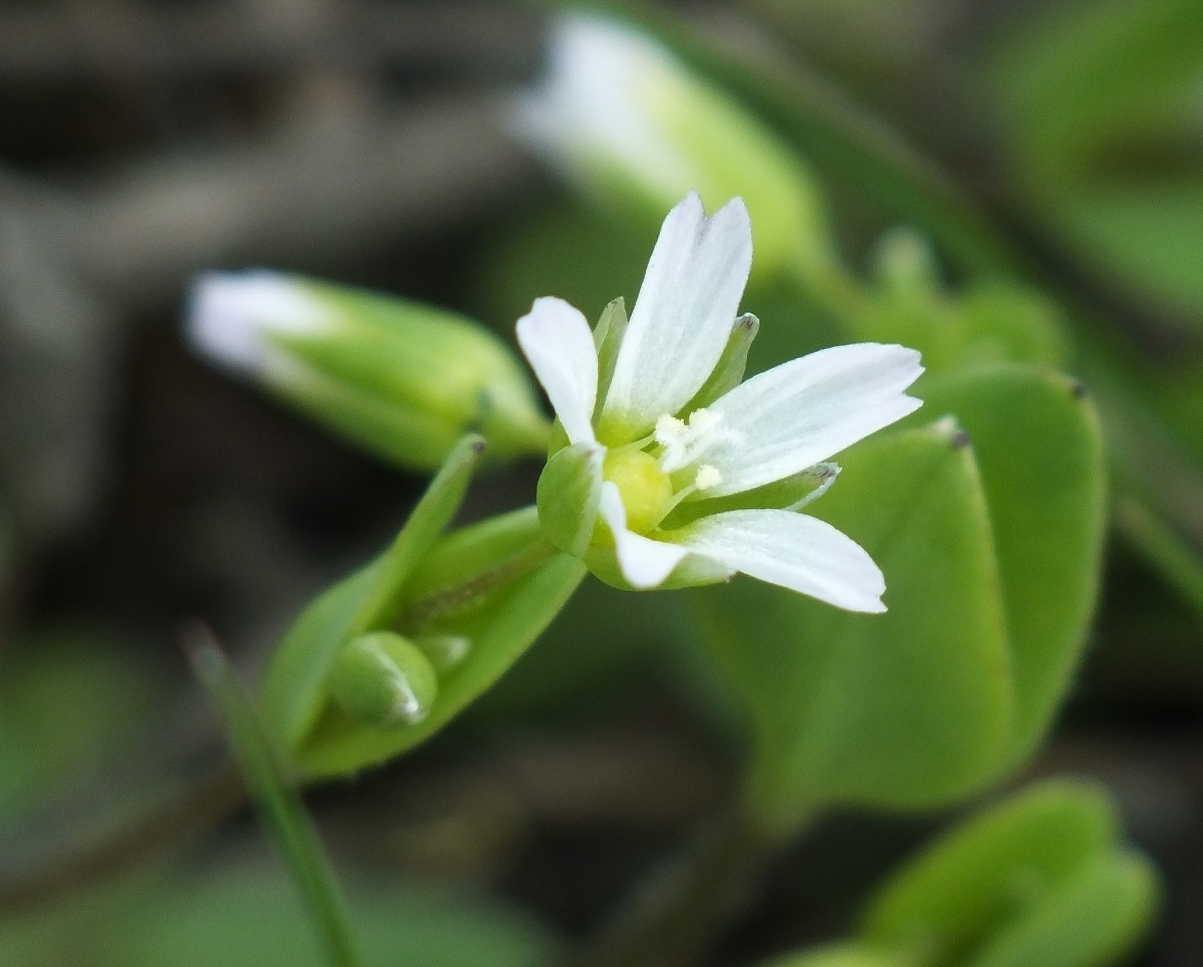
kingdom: Plantae
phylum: Tracheophyta
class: Magnoliopsida
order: Caryophyllales
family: Caryophyllaceae
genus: Holosteum
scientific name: Holosteum umbellatum
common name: Jagged chickweed
